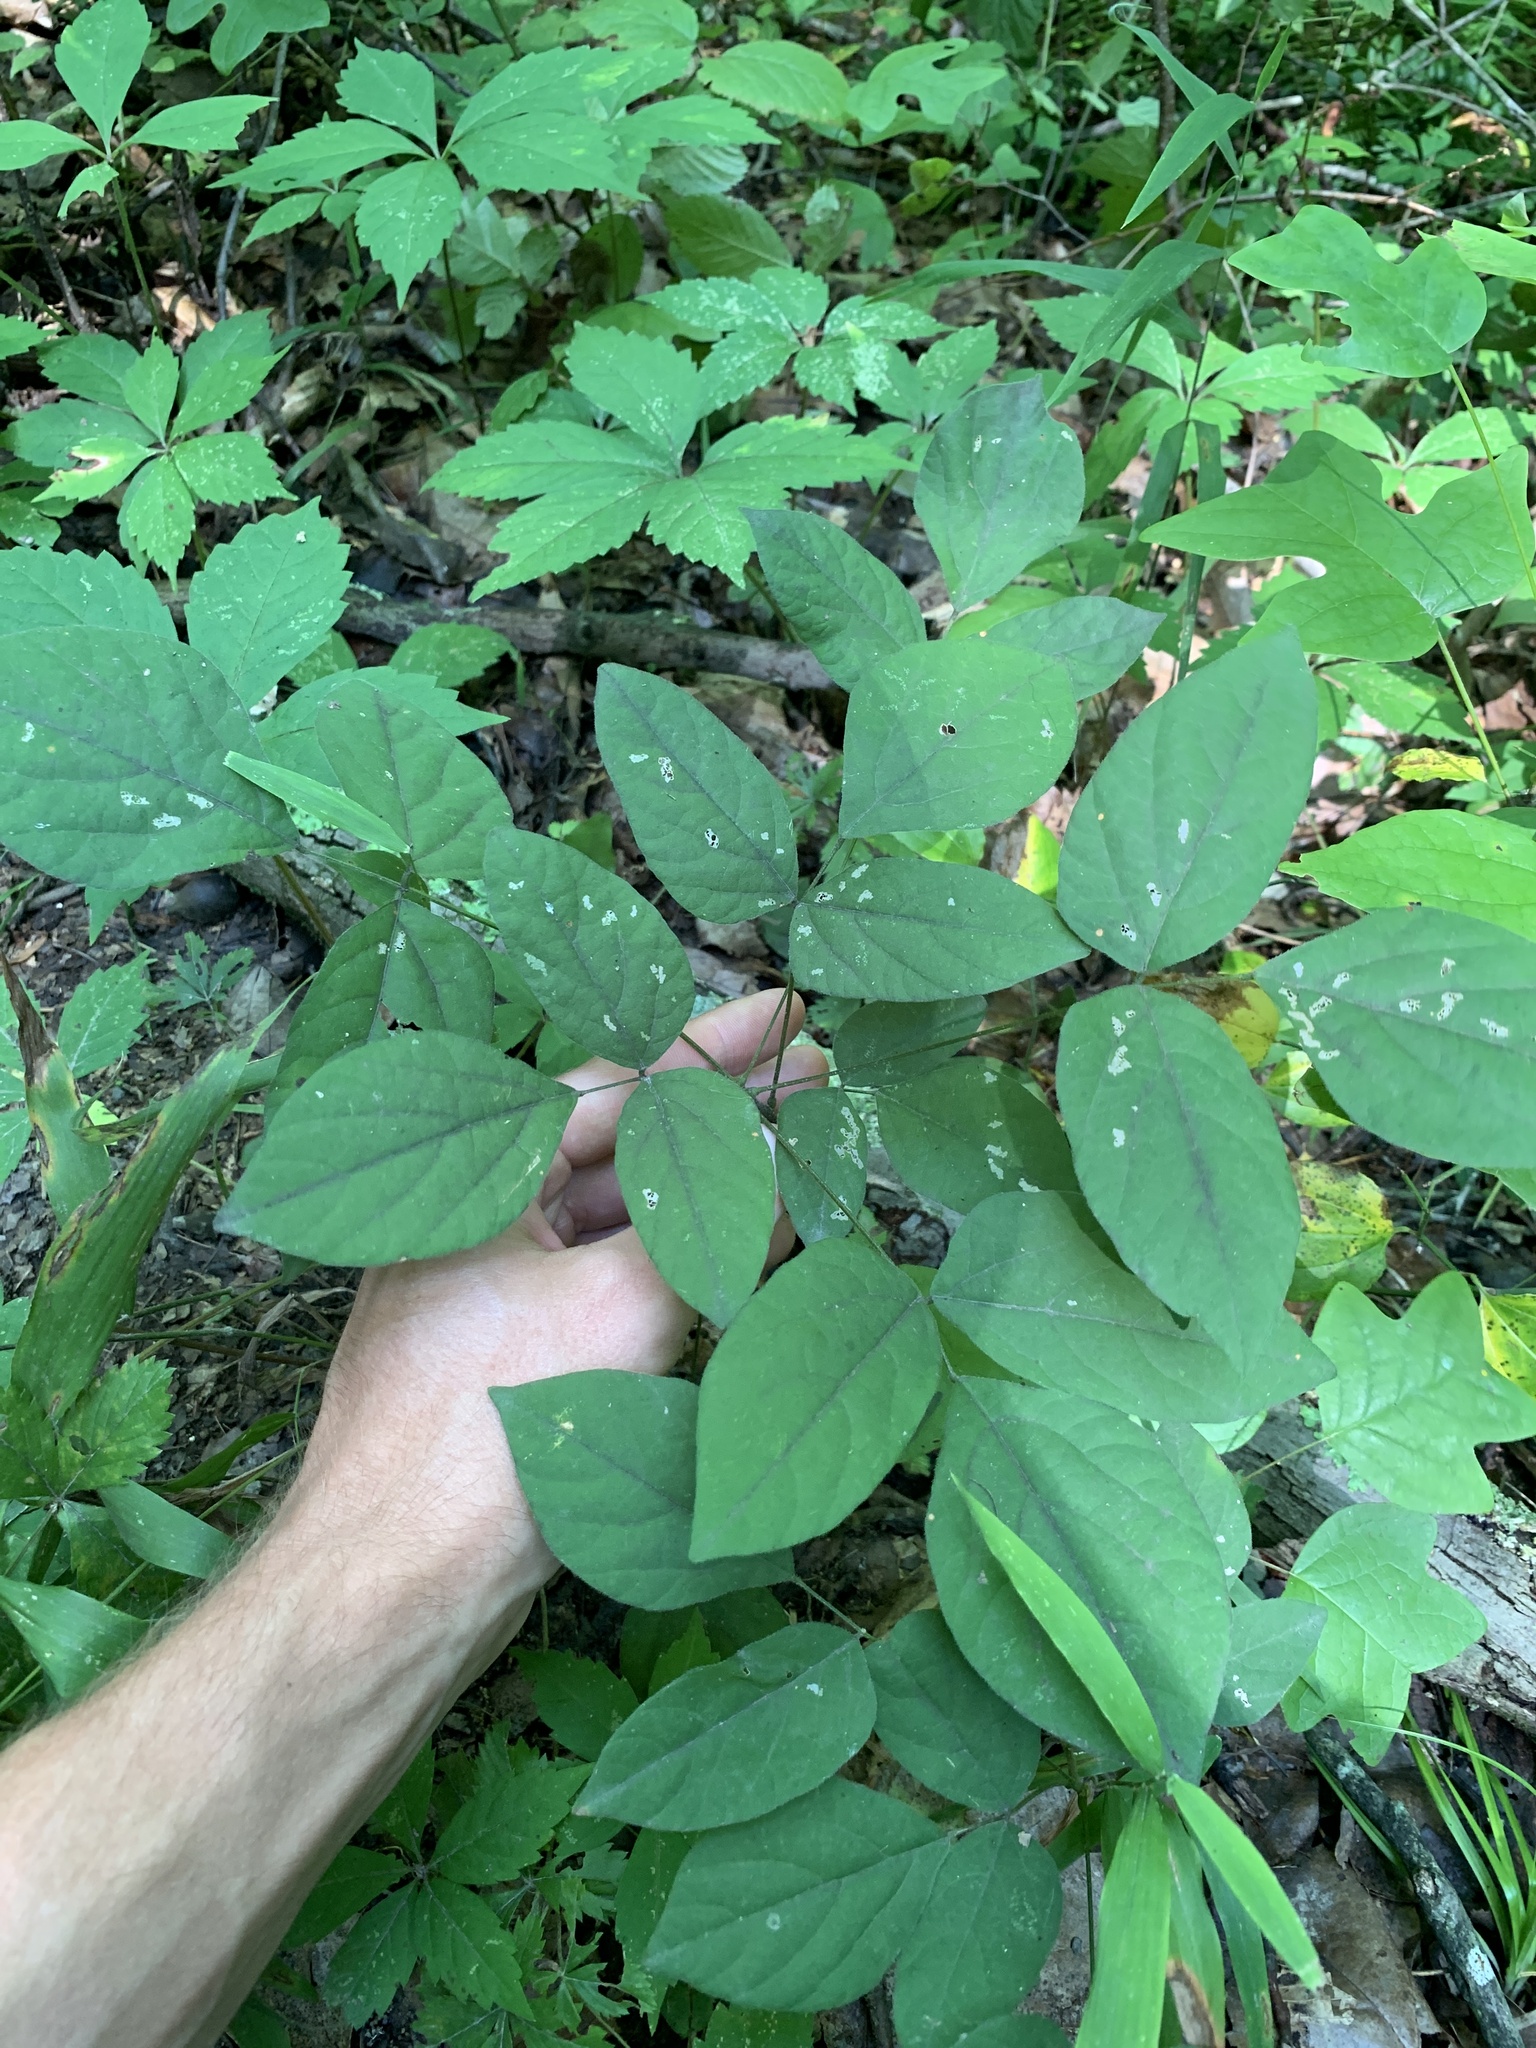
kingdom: Plantae
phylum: Tracheophyta
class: Magnoliopsida
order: Fabales
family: Fabaceae
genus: Hylodesmum
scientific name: Hylodesmum nudiflorum
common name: Bare-stemmed tick-trefoil
